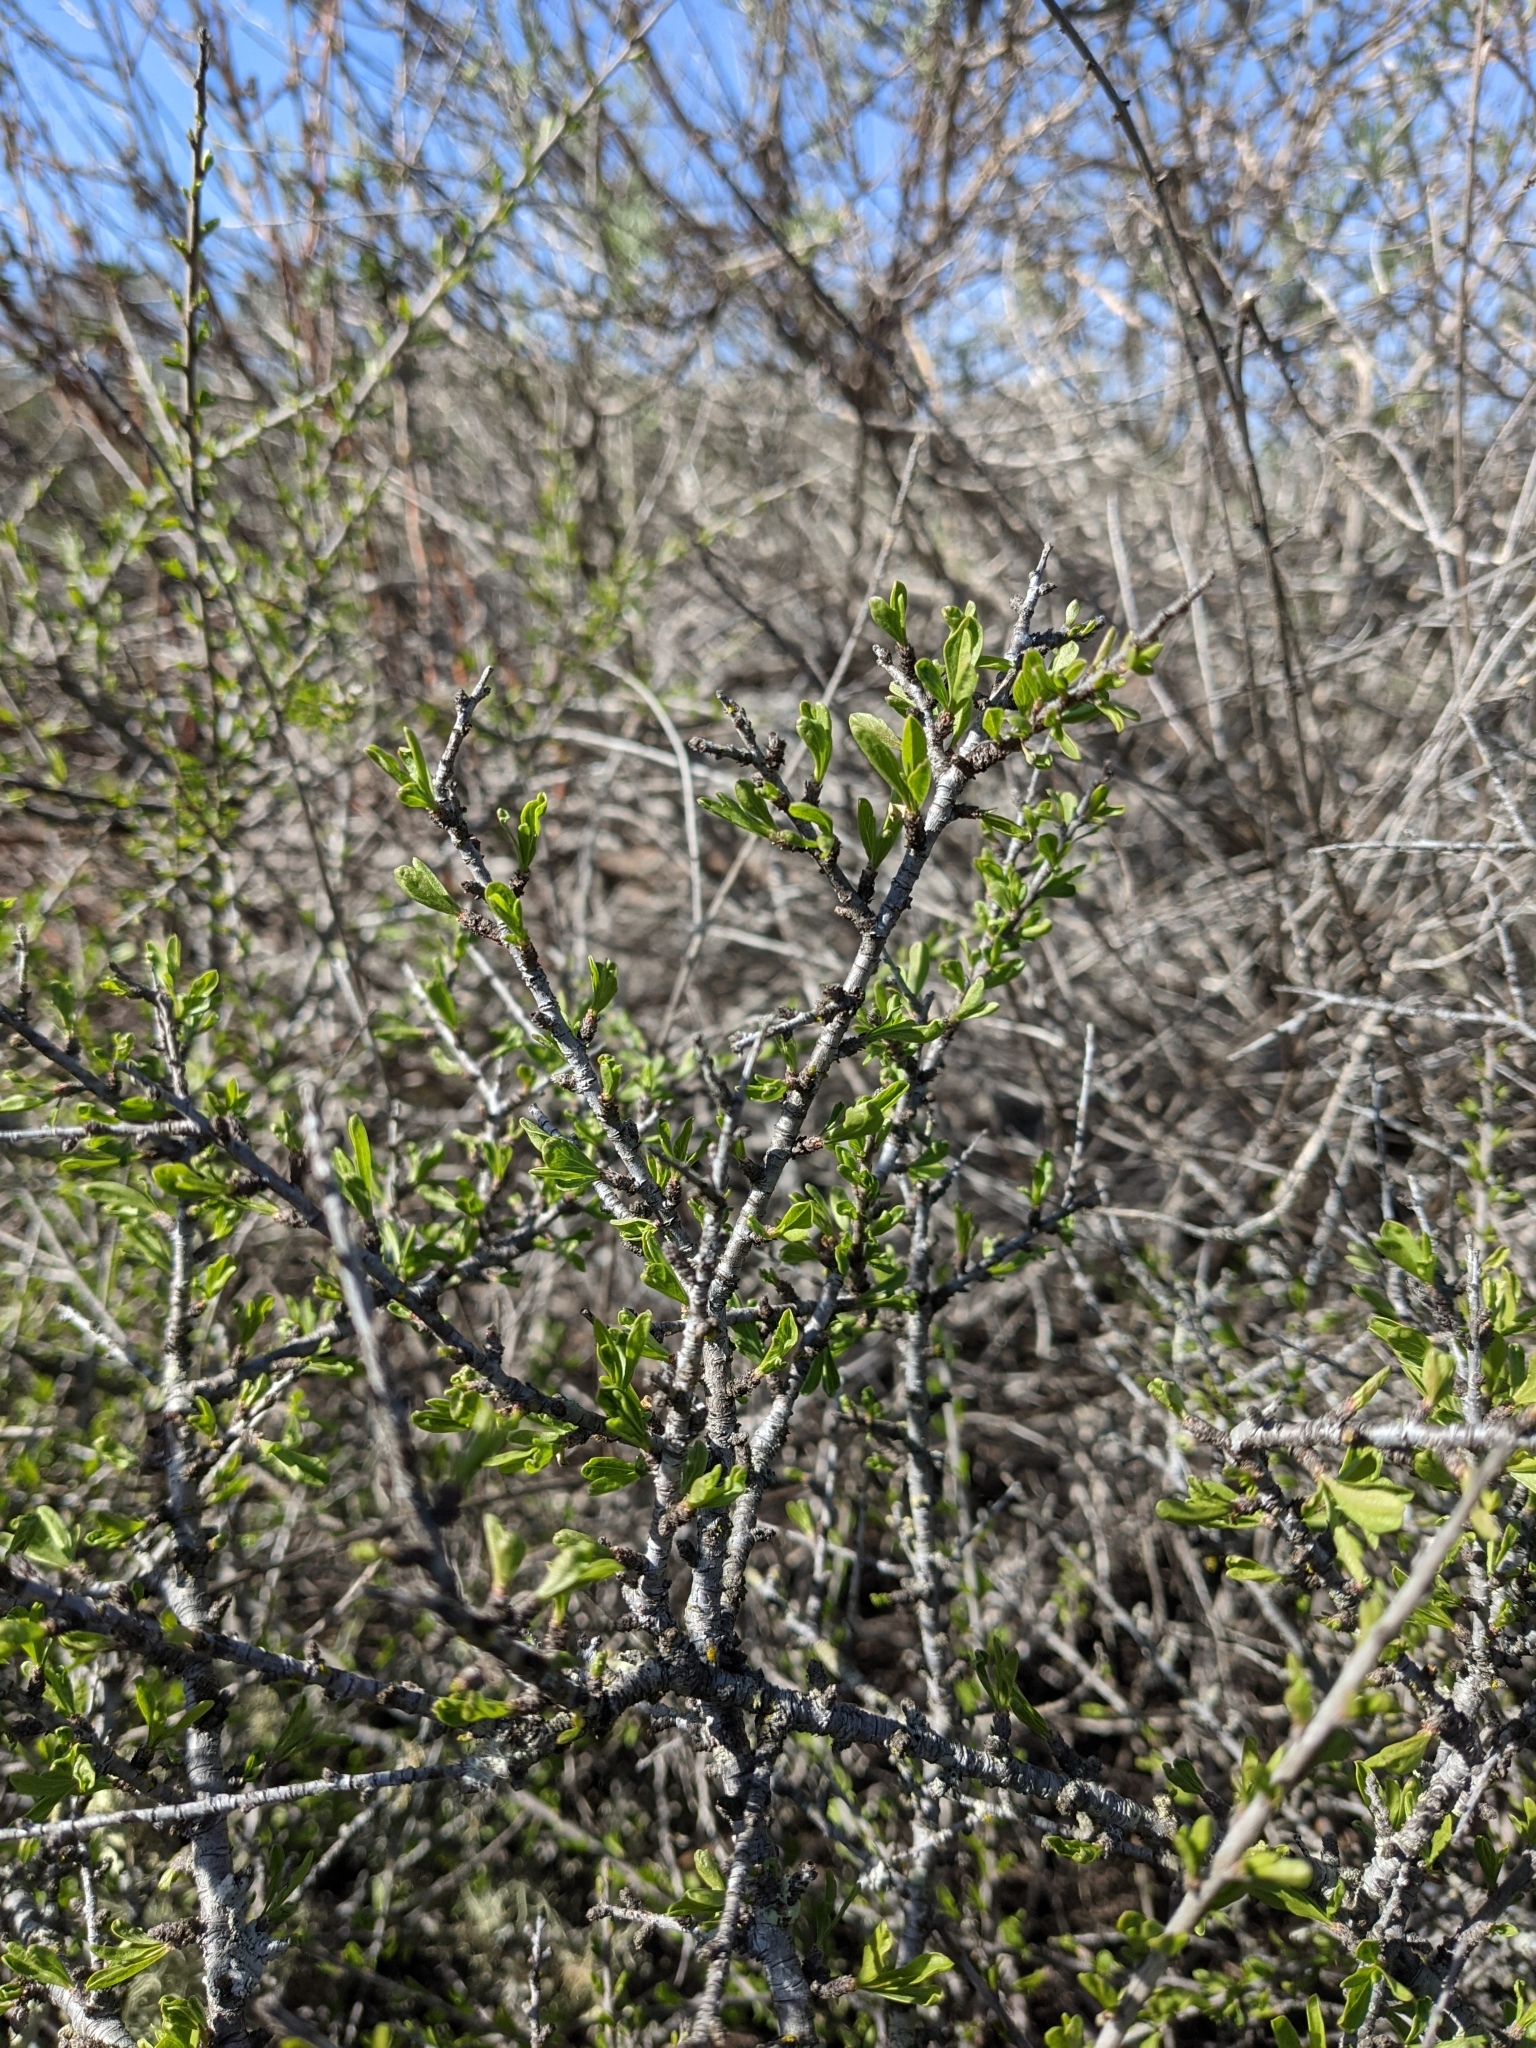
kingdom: Plantae
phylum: Tracheophyta
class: Magnoliopsida
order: Rosales
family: Rosaceae
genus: Prunus
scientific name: Prunus fasciculata
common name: Desert almond
